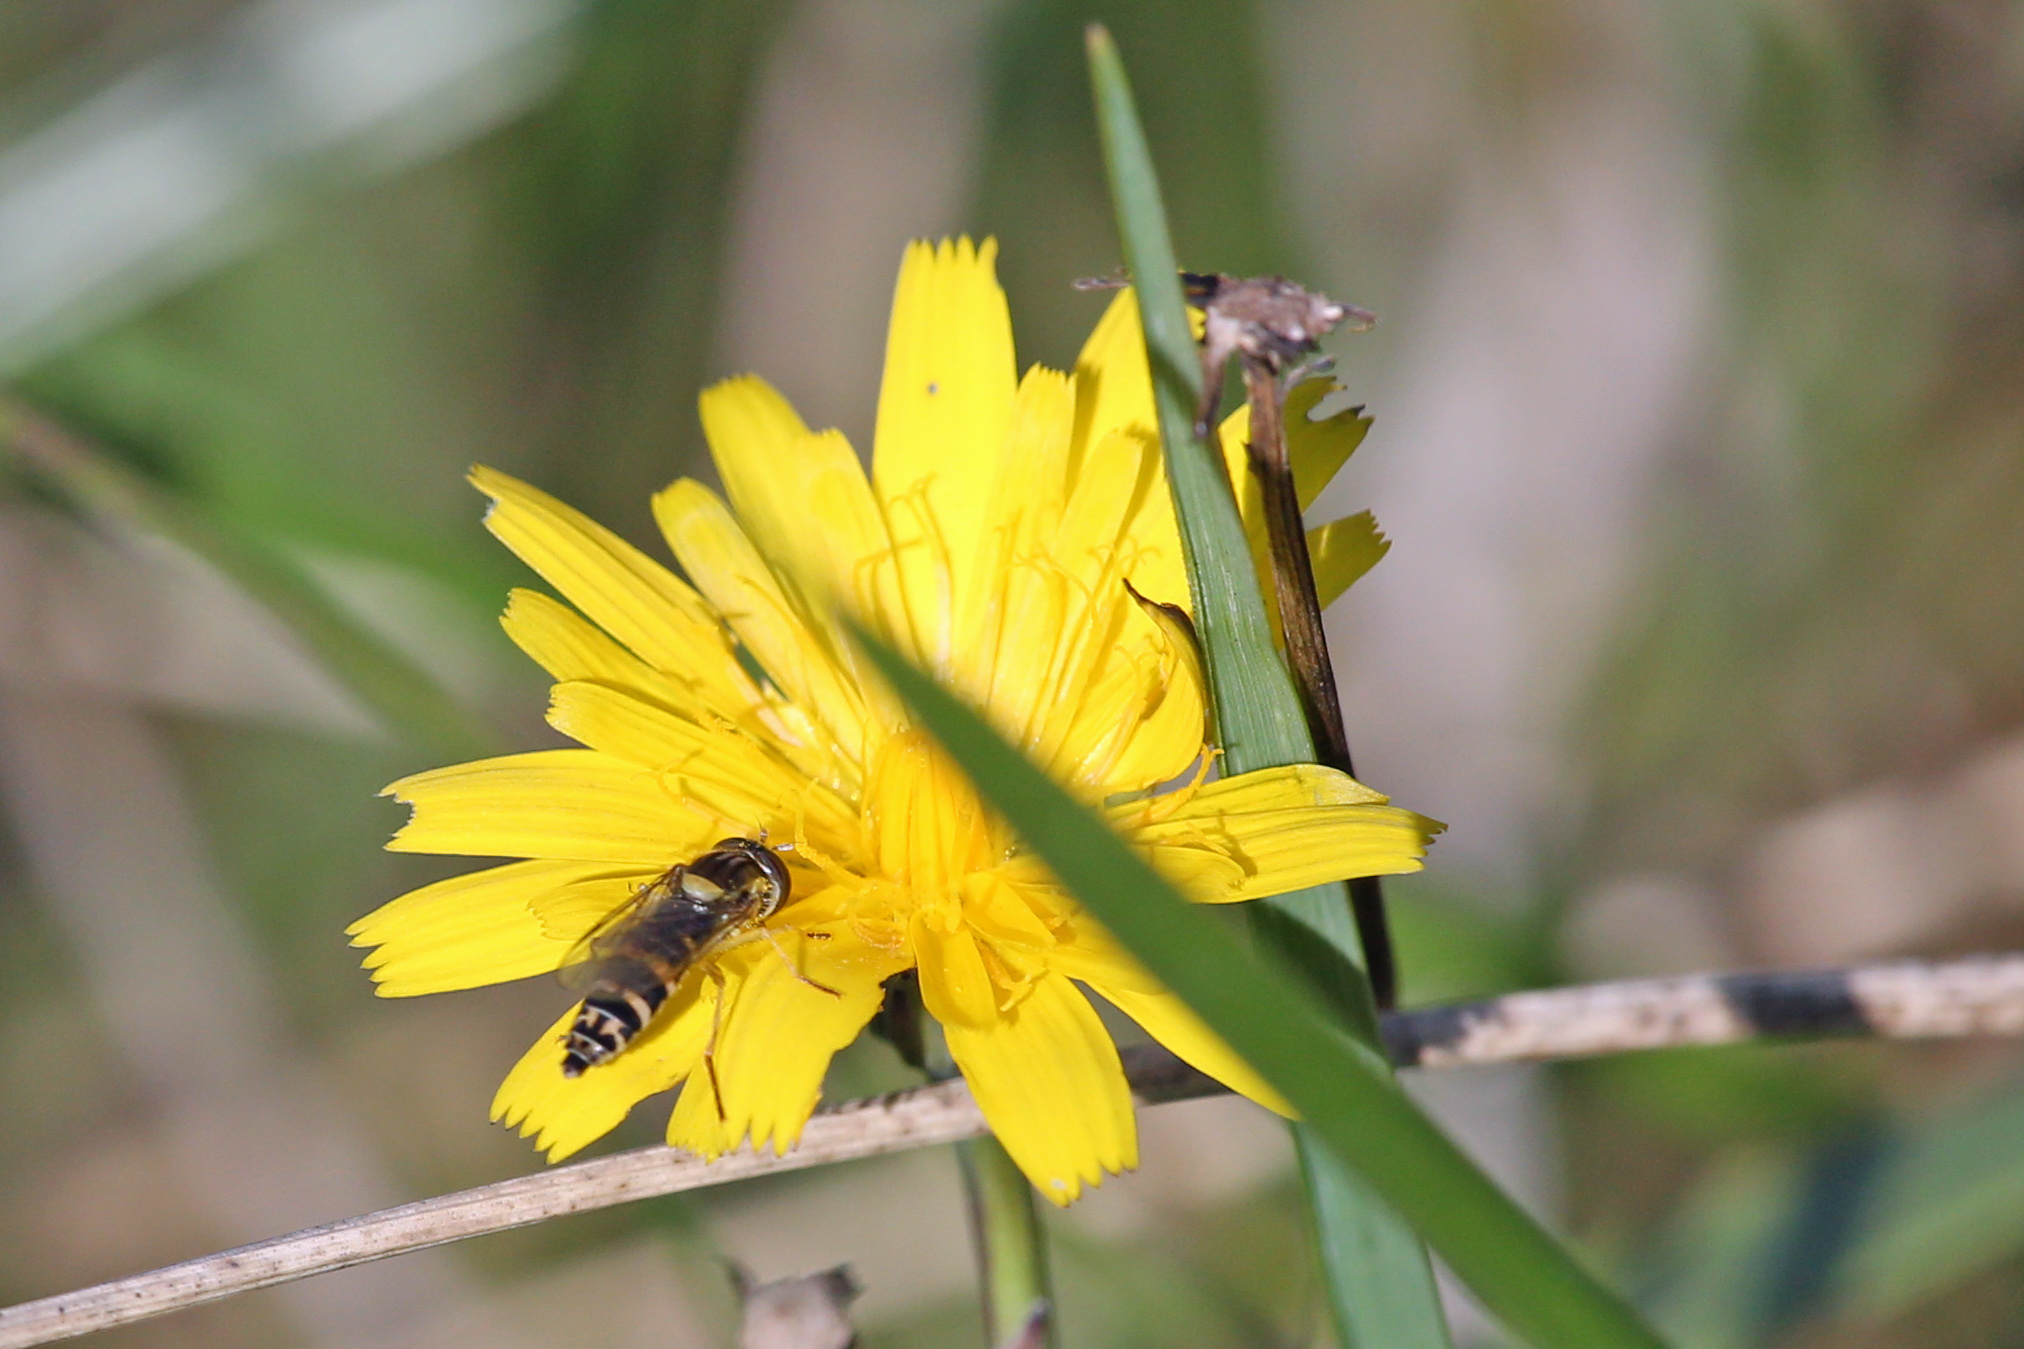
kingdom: Animalia
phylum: Arthropoda
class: Insecta
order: Diptera
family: Syrphidae
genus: Sphaerophoria
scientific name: Sphaerophoria
